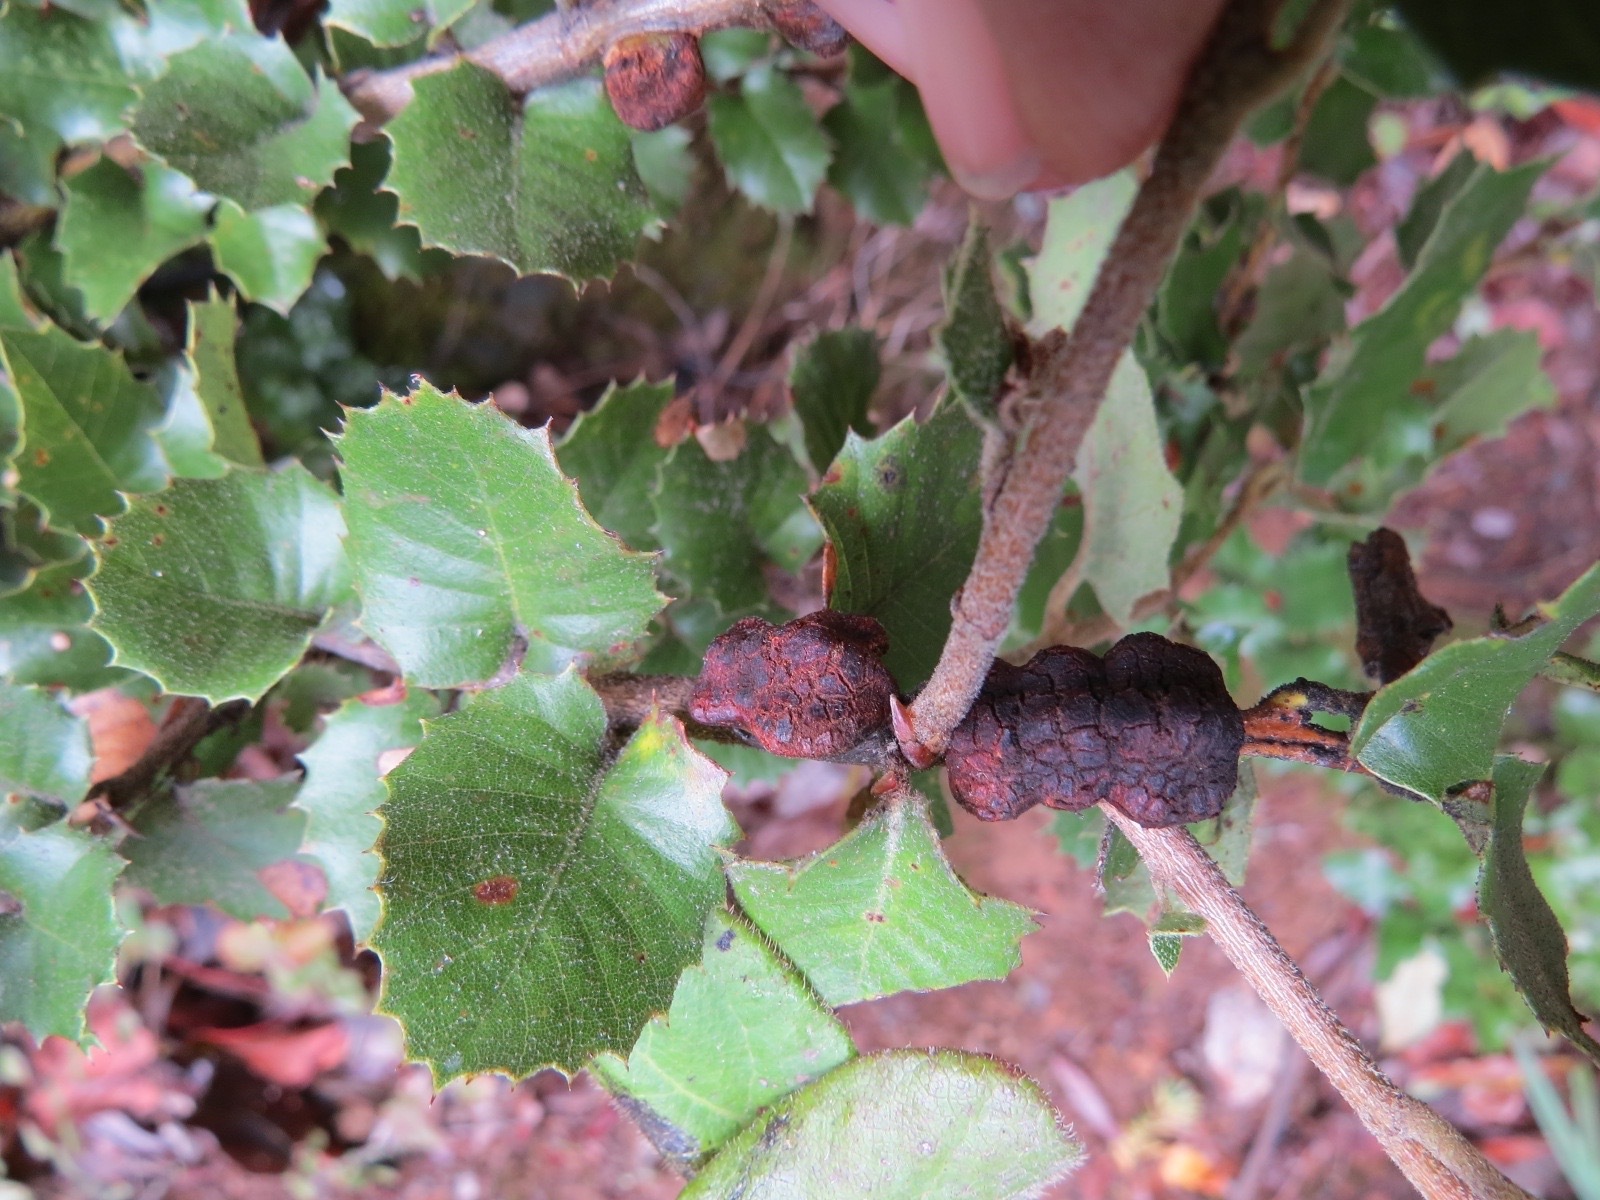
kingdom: Animalia
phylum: Arthropoda
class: Insecta
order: Hymenoptera
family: Cynipidae
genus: Disholandricus
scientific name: Disholandricus
